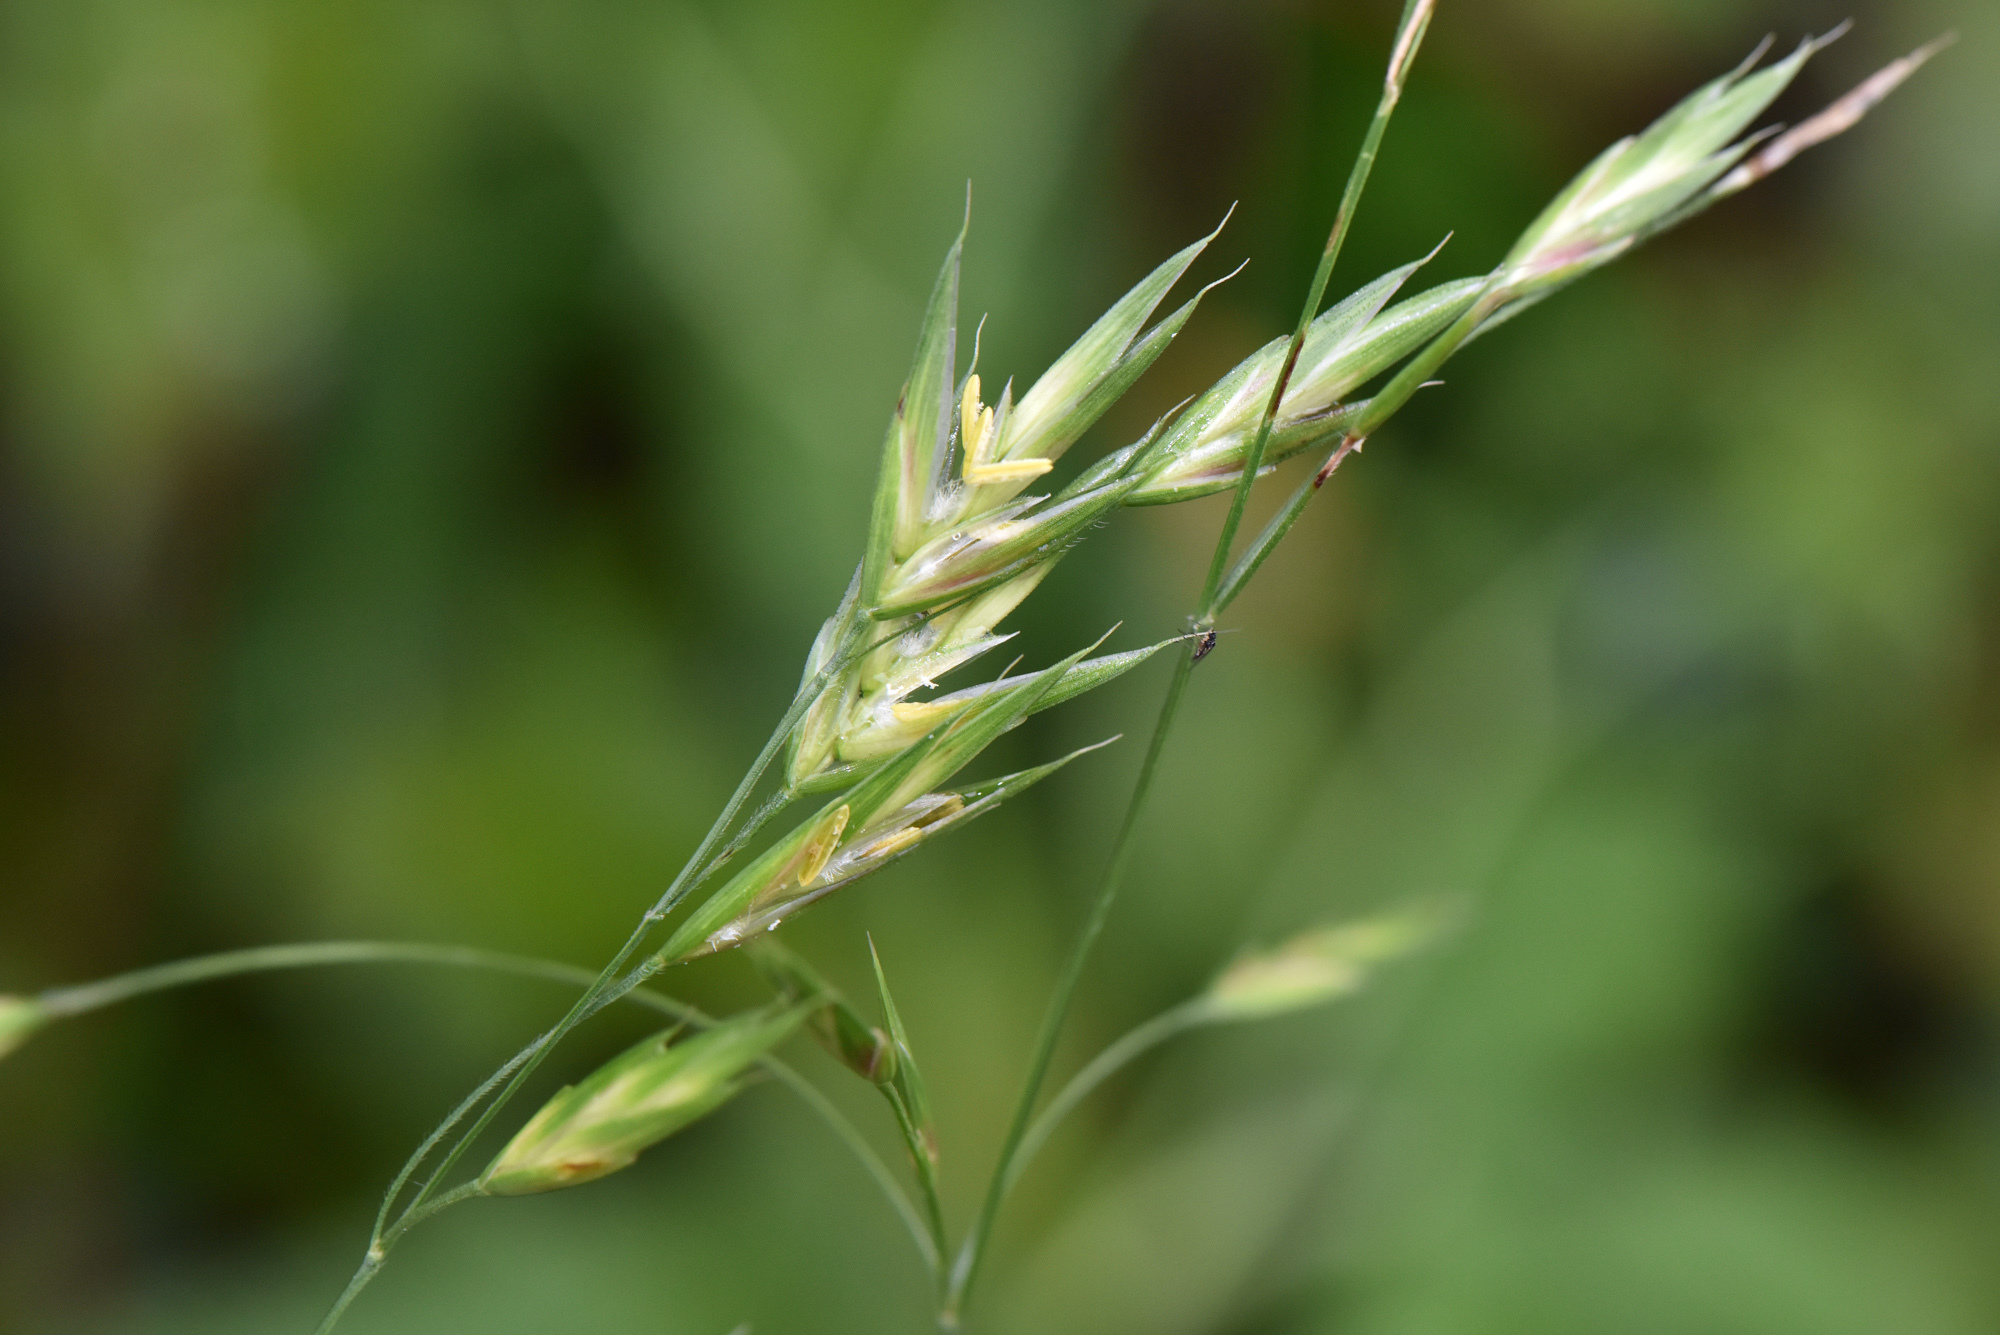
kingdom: Plantae
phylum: Tracheophyta
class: Liliopsida
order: Poales
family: Poaceae
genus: Bromus
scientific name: Bromus catharticus
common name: Rescuegrass
